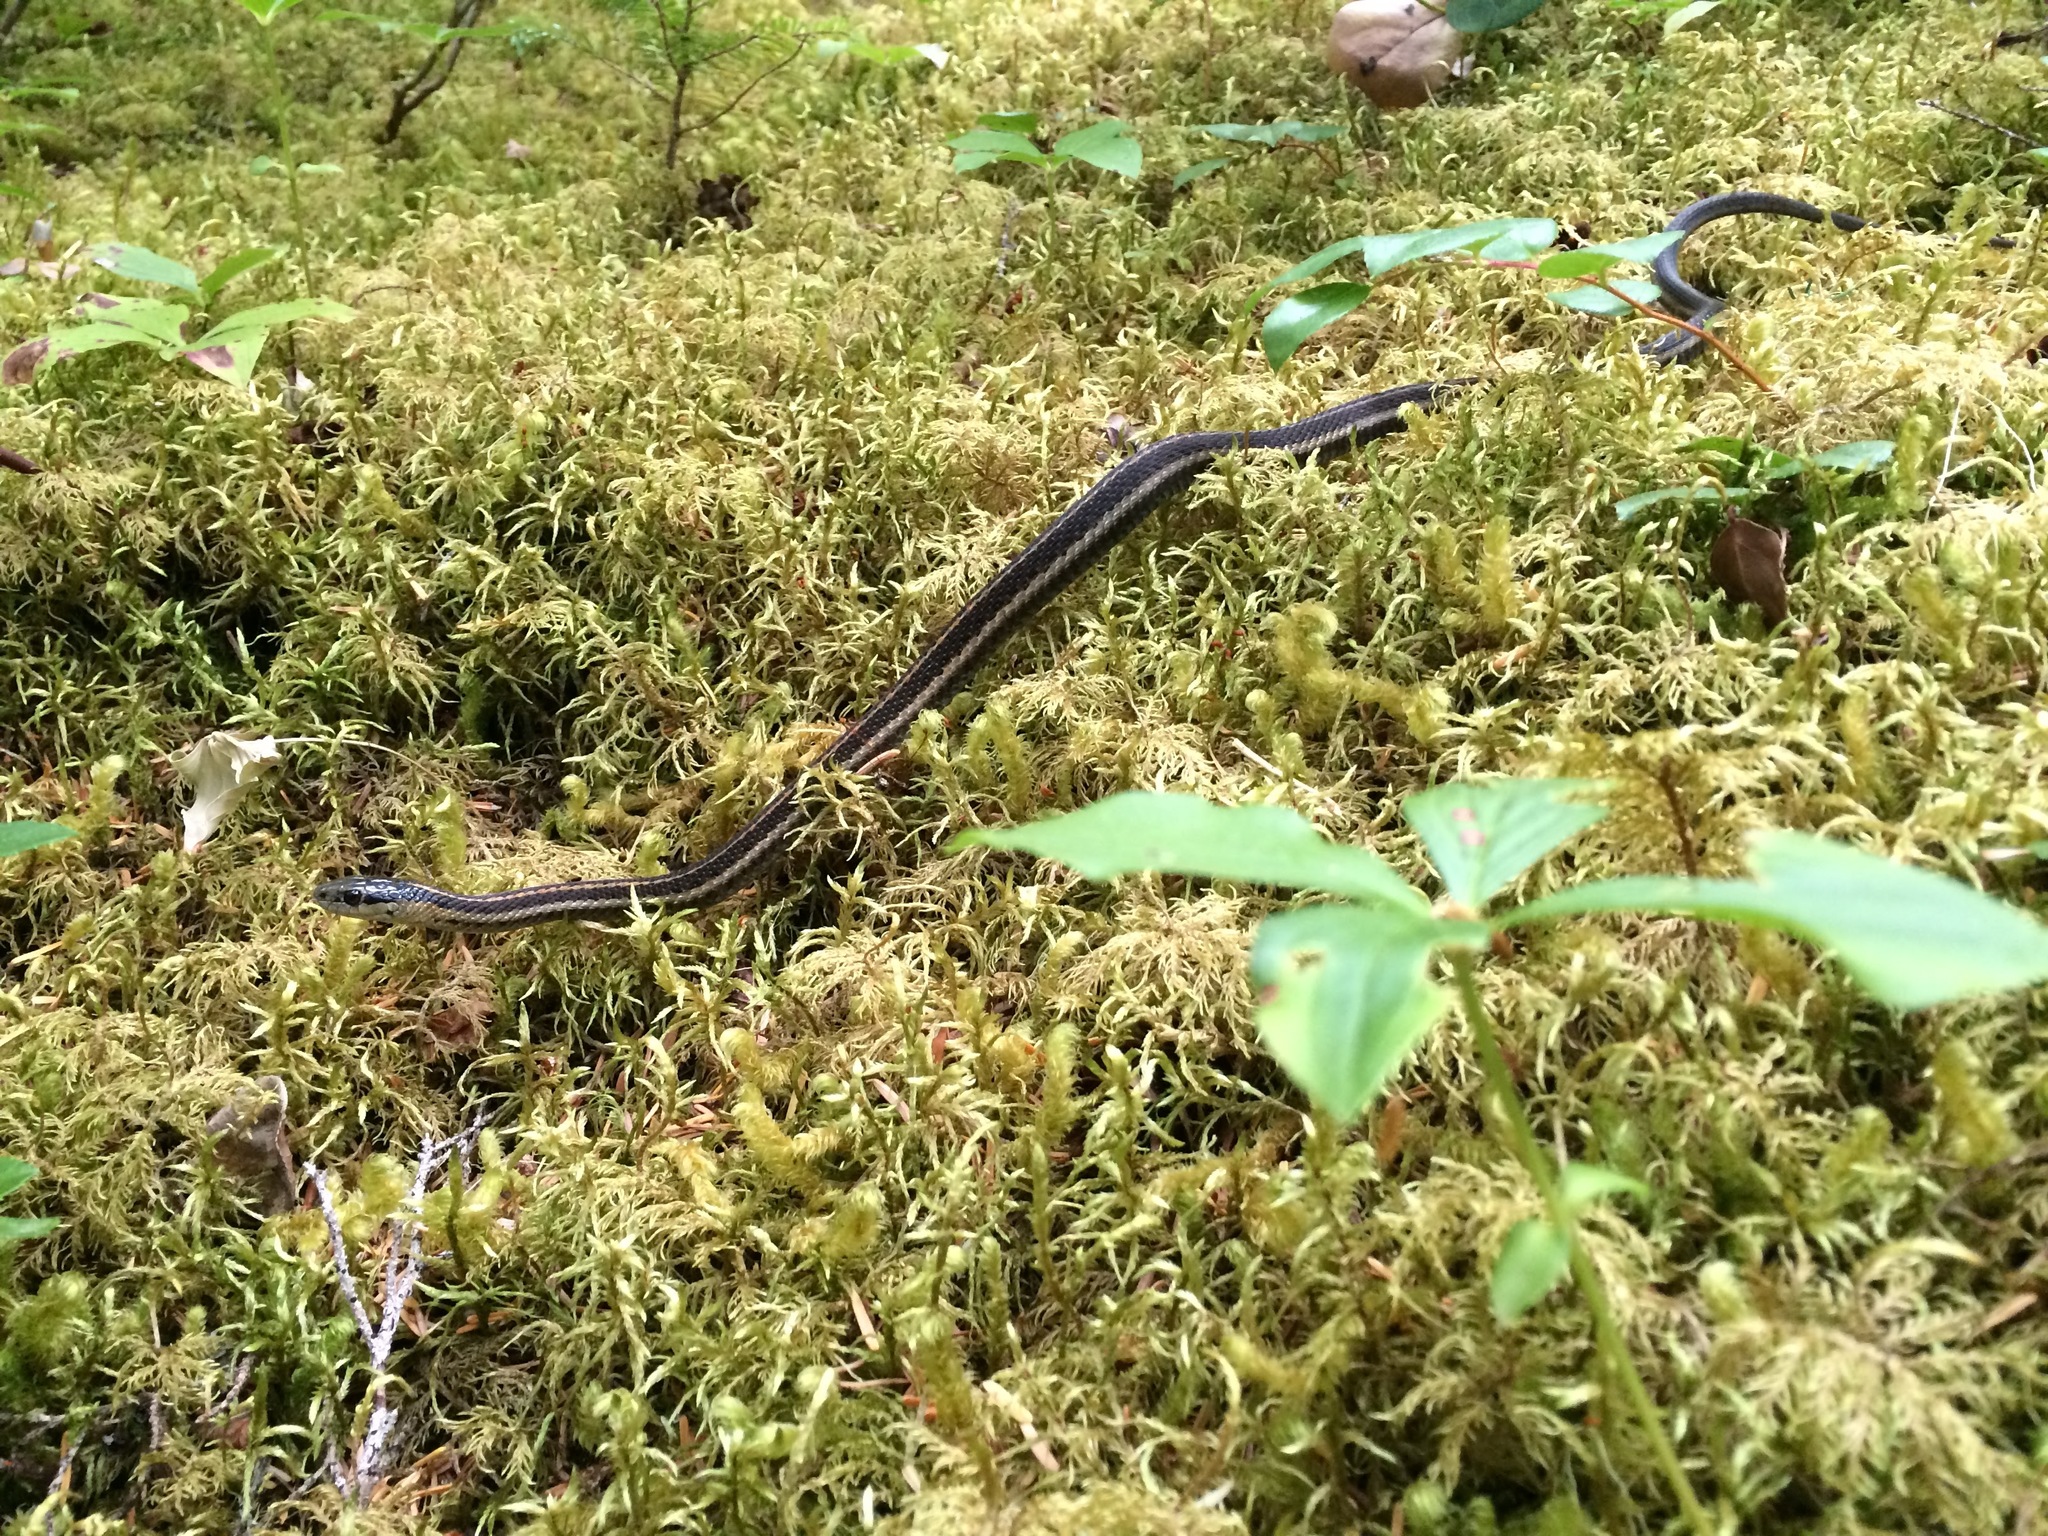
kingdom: Animalia
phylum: Chordata
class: Squamata
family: Colubridae
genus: Thamnophis
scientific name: Thamnophis ordinoides
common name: Northwestern garter snake
